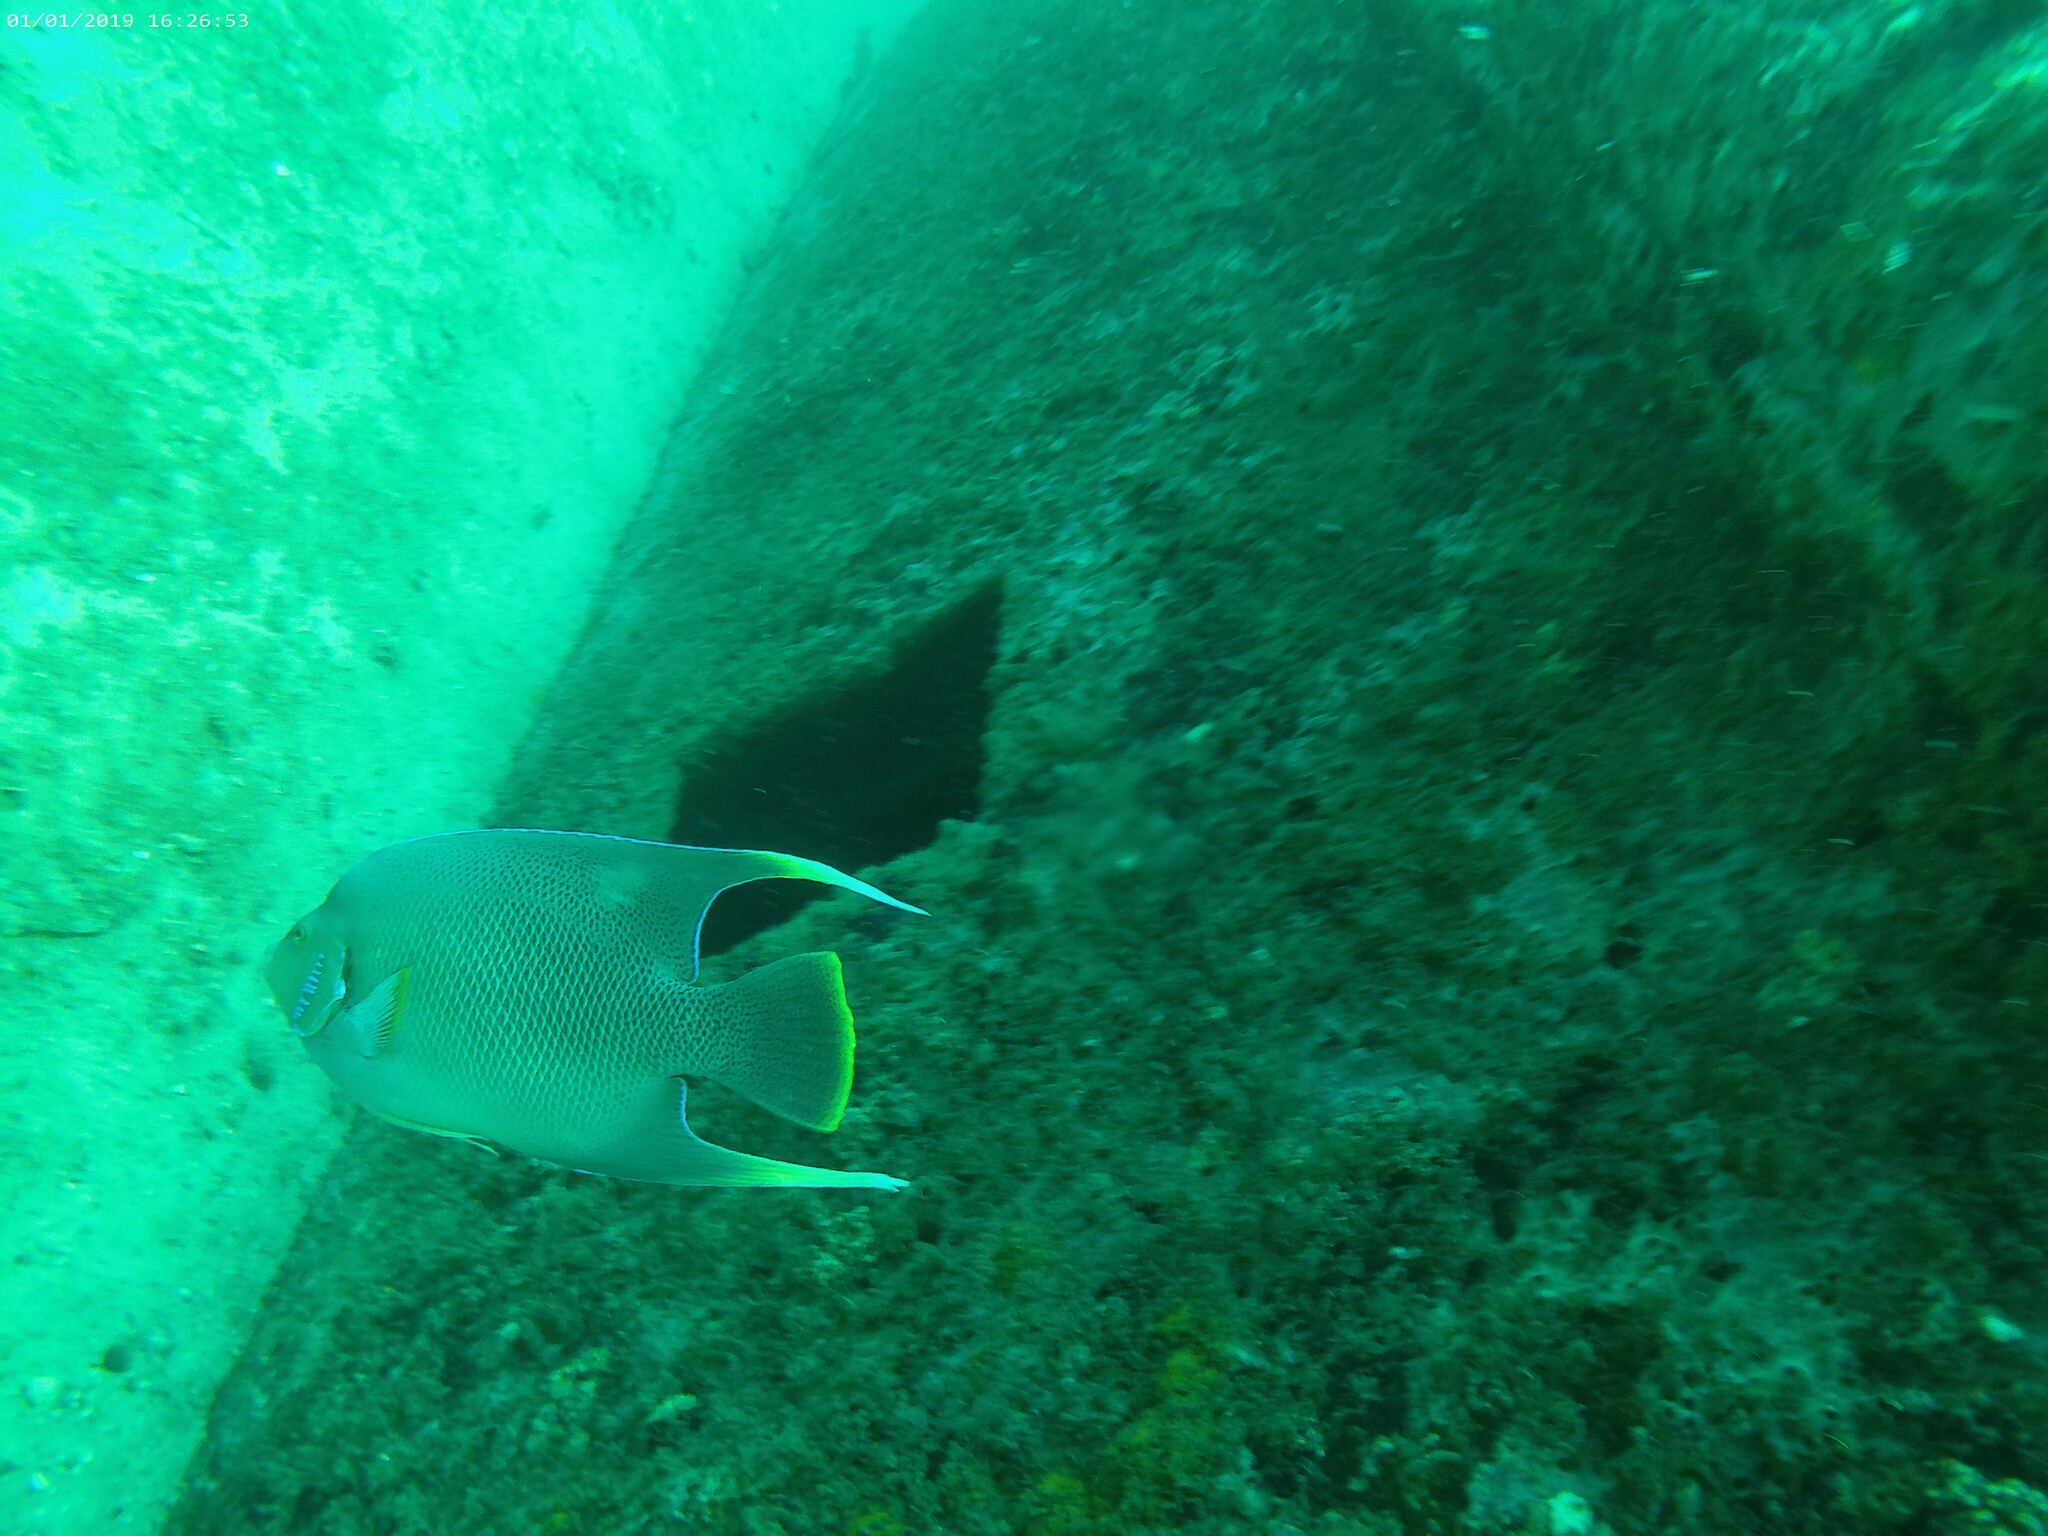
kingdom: Animalia
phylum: Chordata
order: Perciformes
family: Pomacanthidae
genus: Holacanthus
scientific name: Holacanthus bermudensis
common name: Blue angelfish
